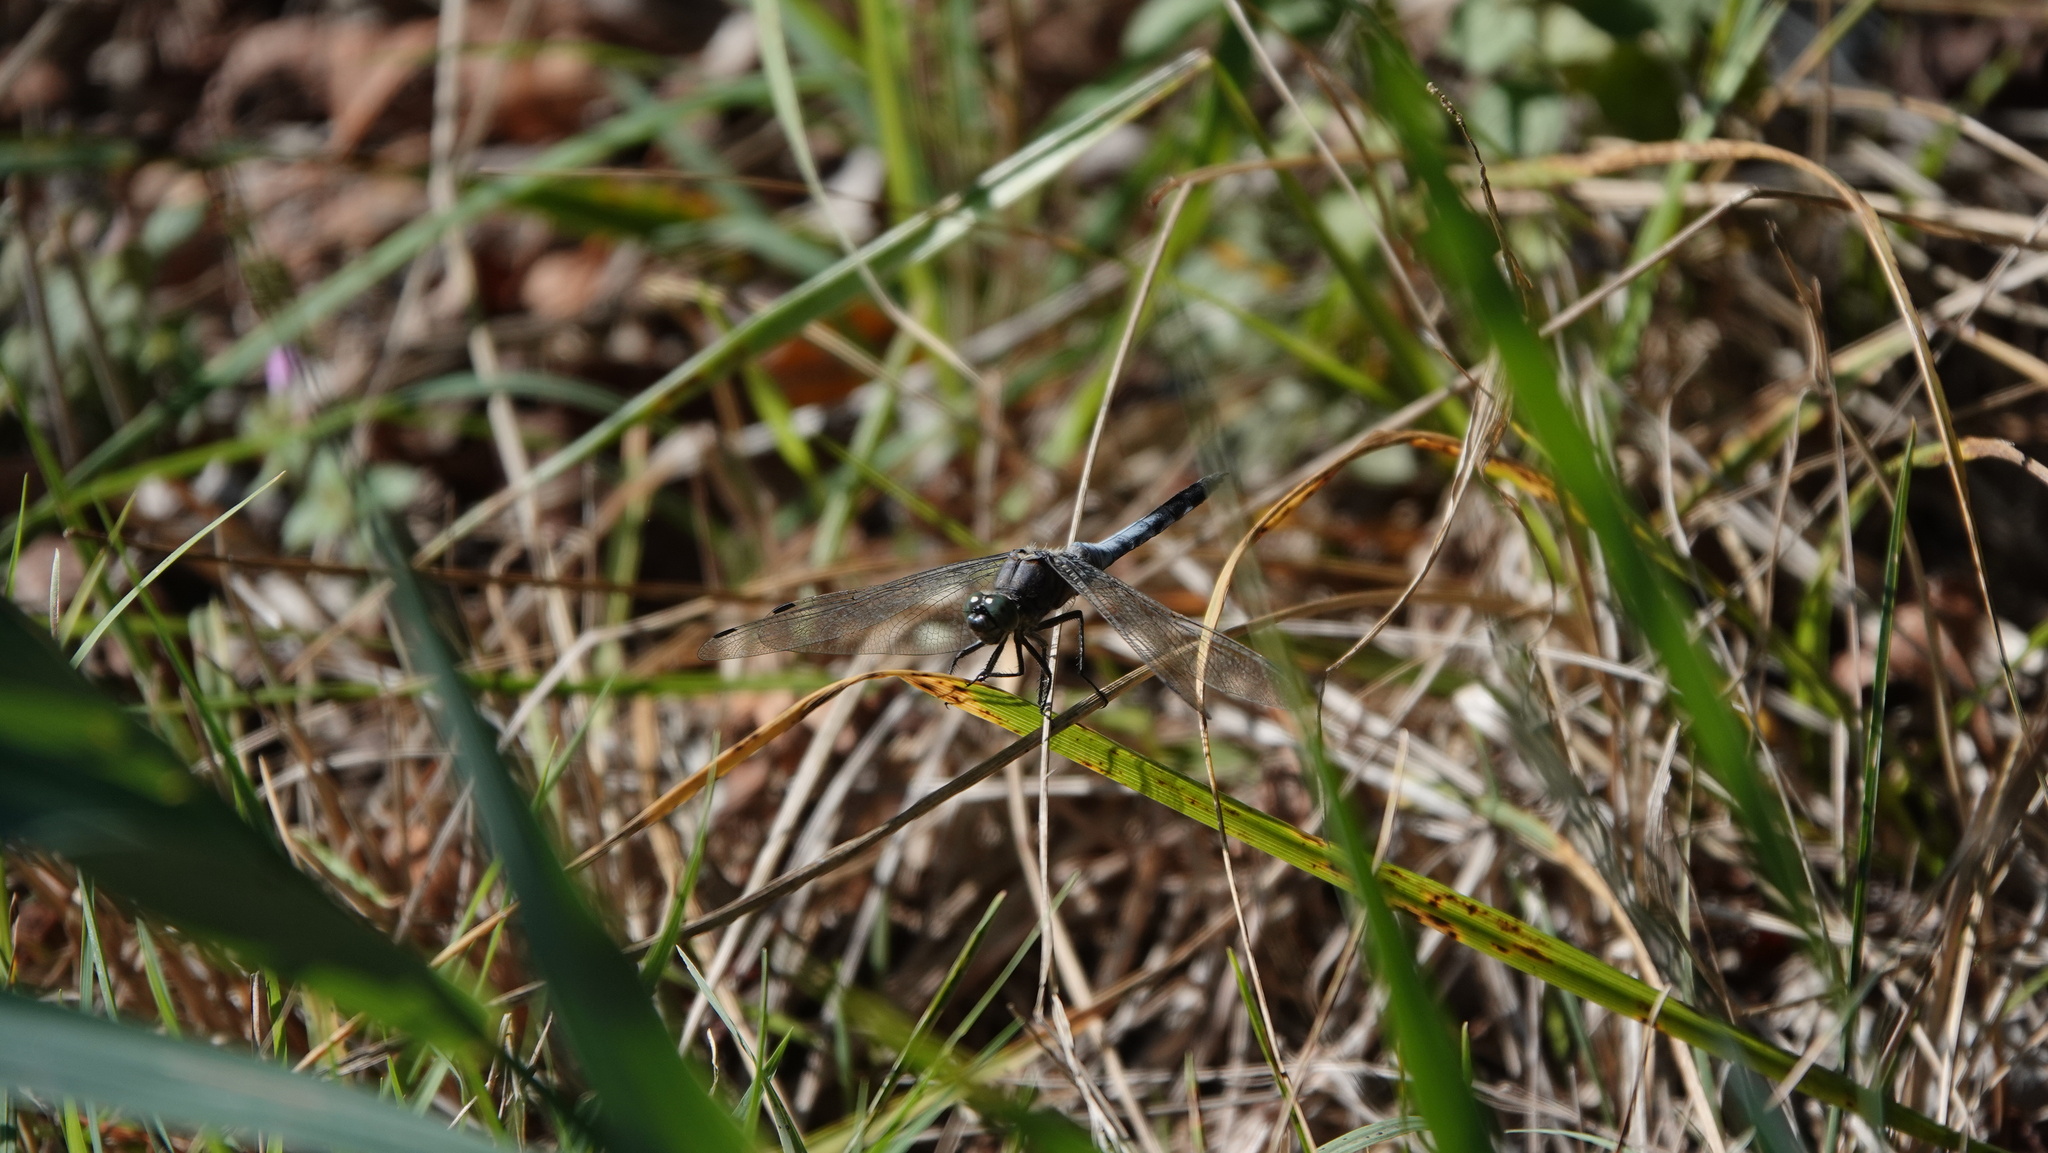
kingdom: Animalia
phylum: Arthropoda
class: Insecta
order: Odonata
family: Libellulidae
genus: Orthetrum
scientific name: Orthetrum cancellatum
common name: Black-tailed skimmer
